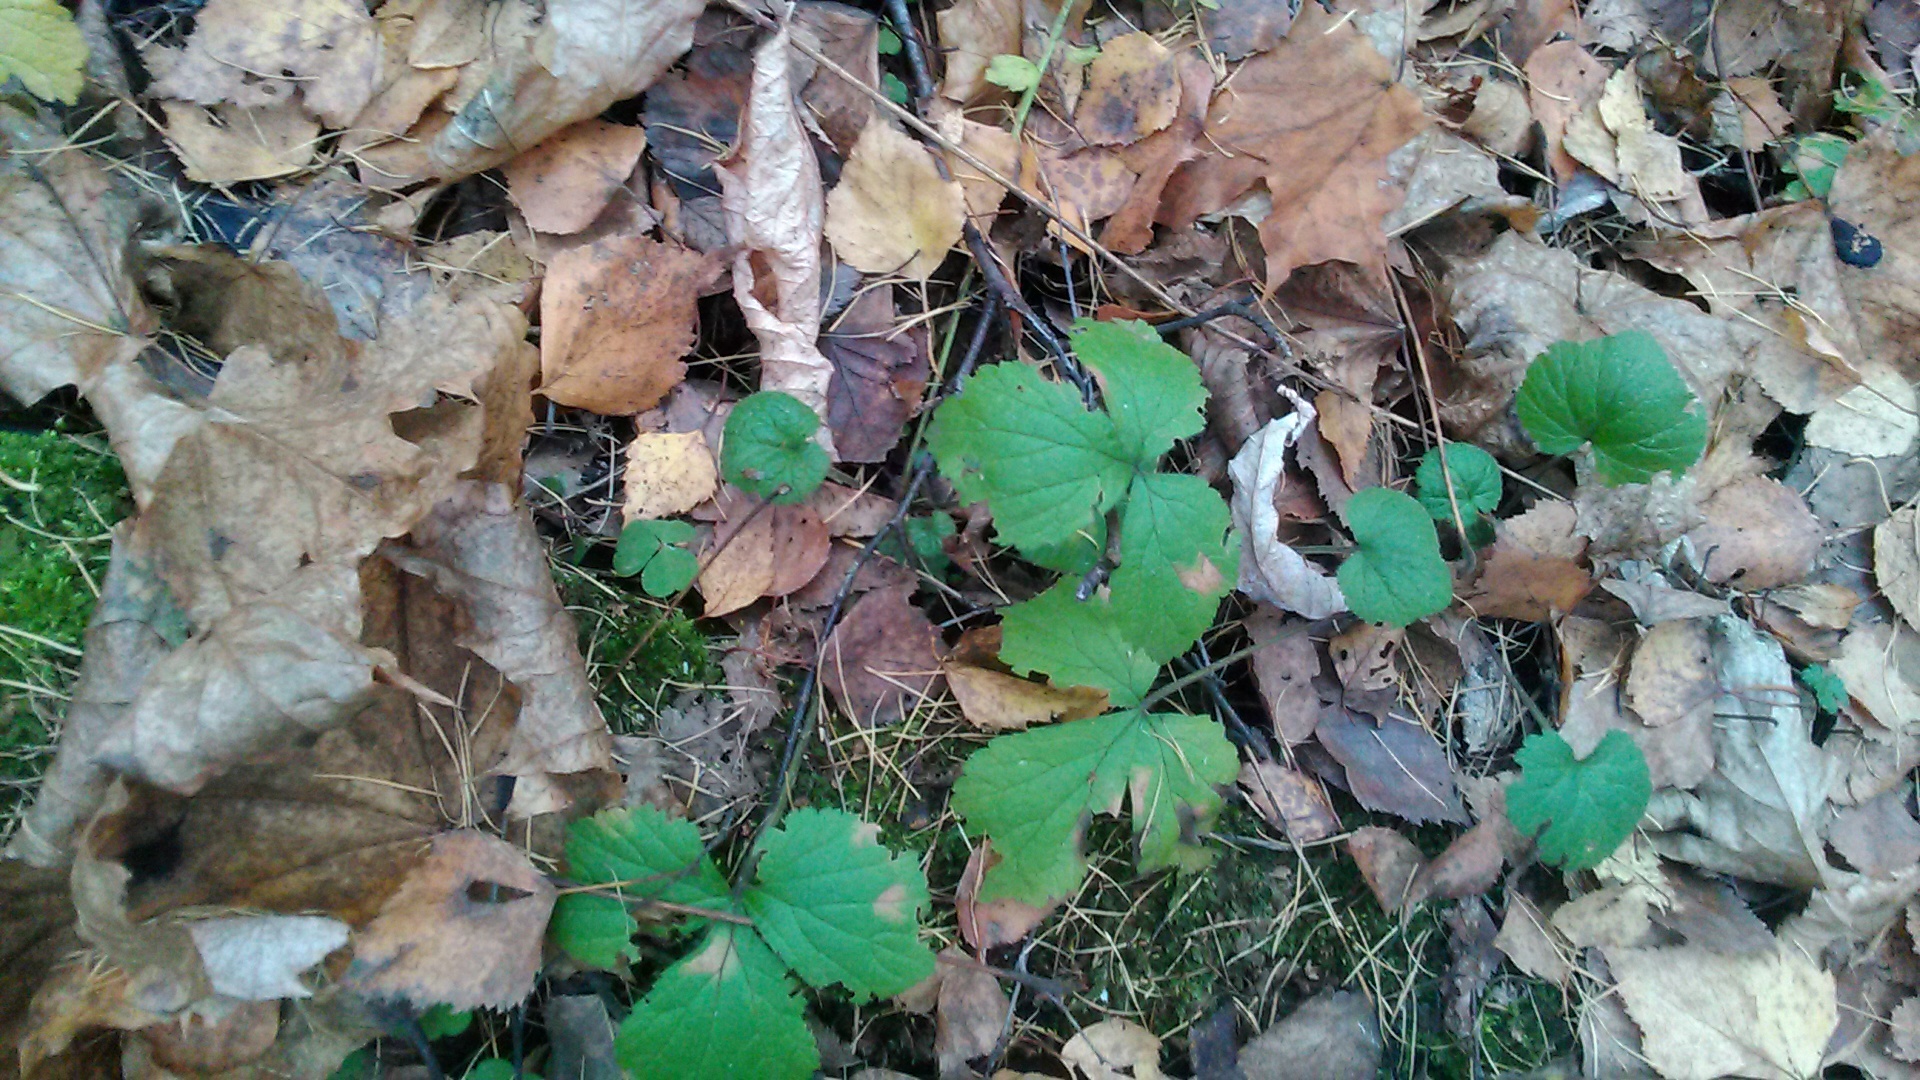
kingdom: Plantae
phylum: Tracheophyta
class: Magnoliopsida
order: Rosales
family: Rosaceae
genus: Geum
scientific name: Geum
